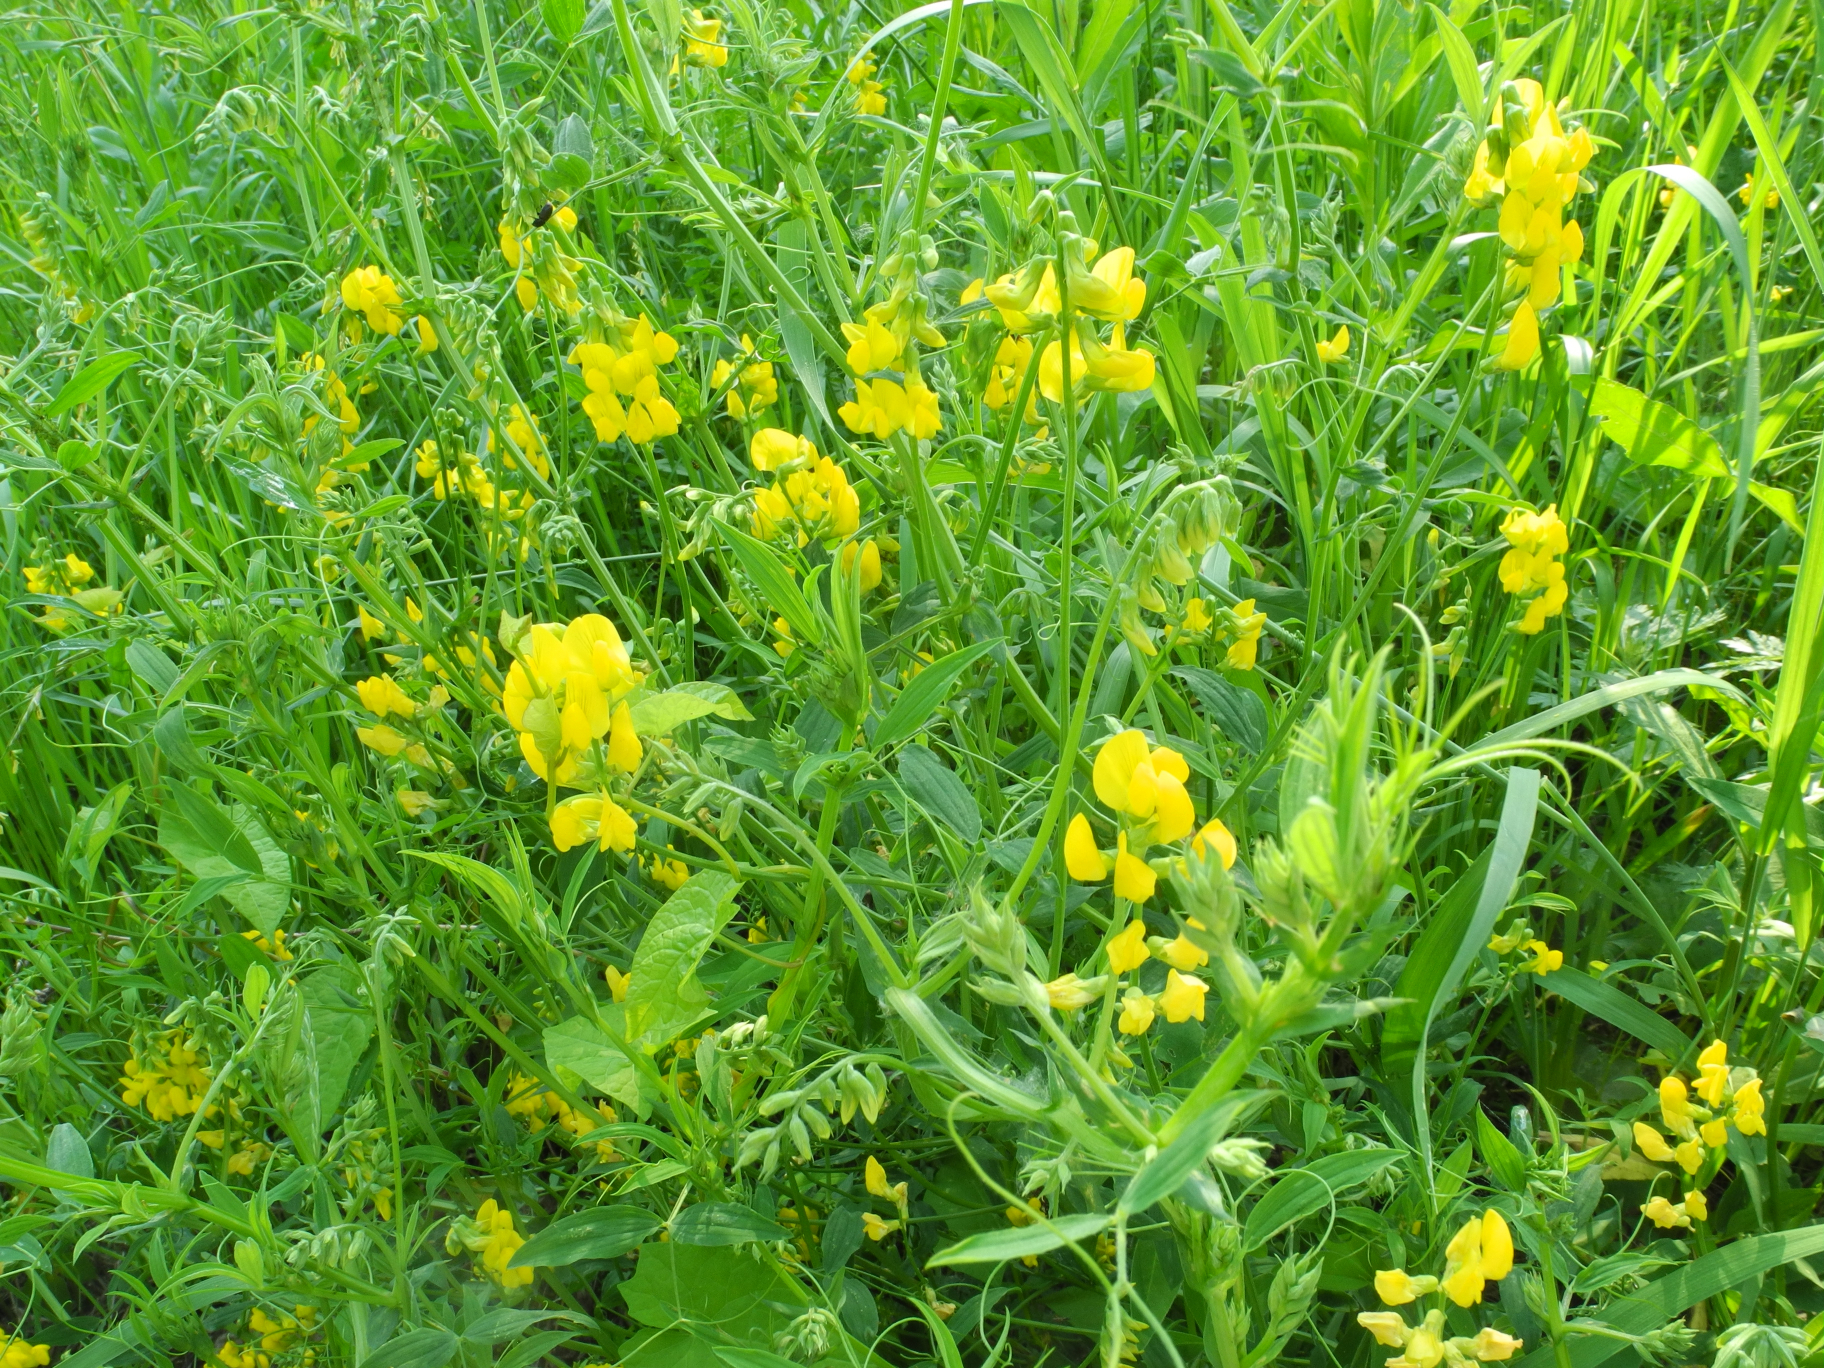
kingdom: Plantae
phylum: Tracheophyta
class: Magnoliopsida
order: Fabales
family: Fabaceae
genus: Lathyrus
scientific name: Lathyrus pratensis
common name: Meadow vetchling
